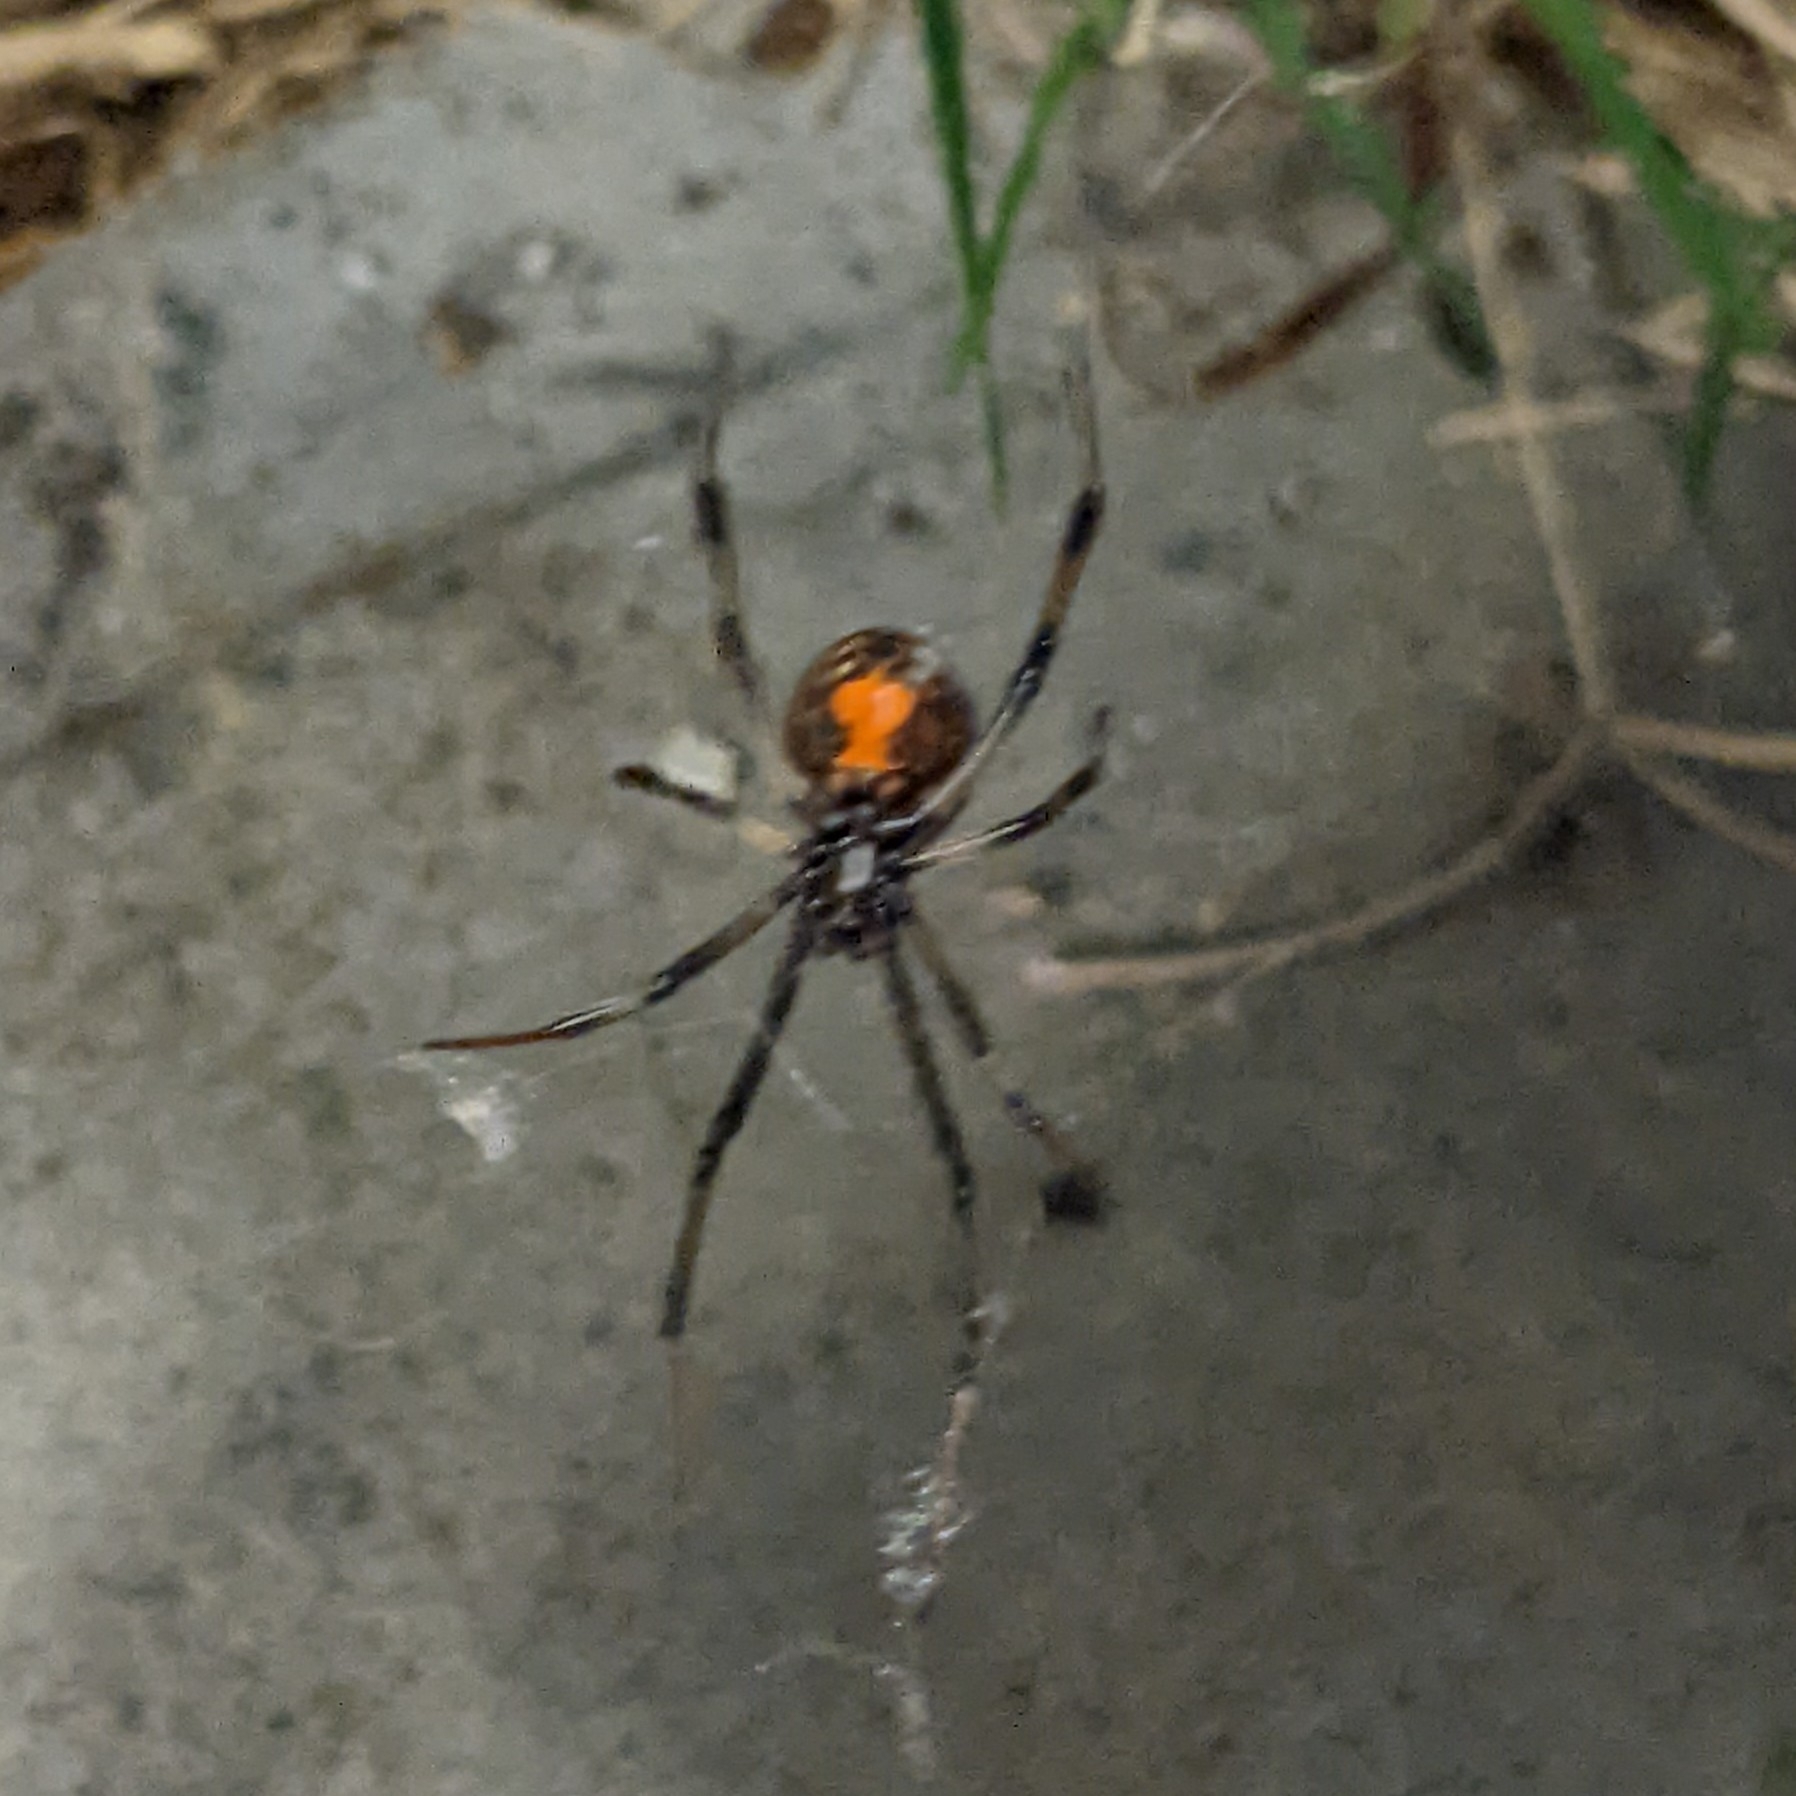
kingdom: Animalia
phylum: Arthropoda
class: Arachnida
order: Araneae
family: Theridiidae
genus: Latrodectus
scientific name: Latrodectus geometricus
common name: Brown widow spider
